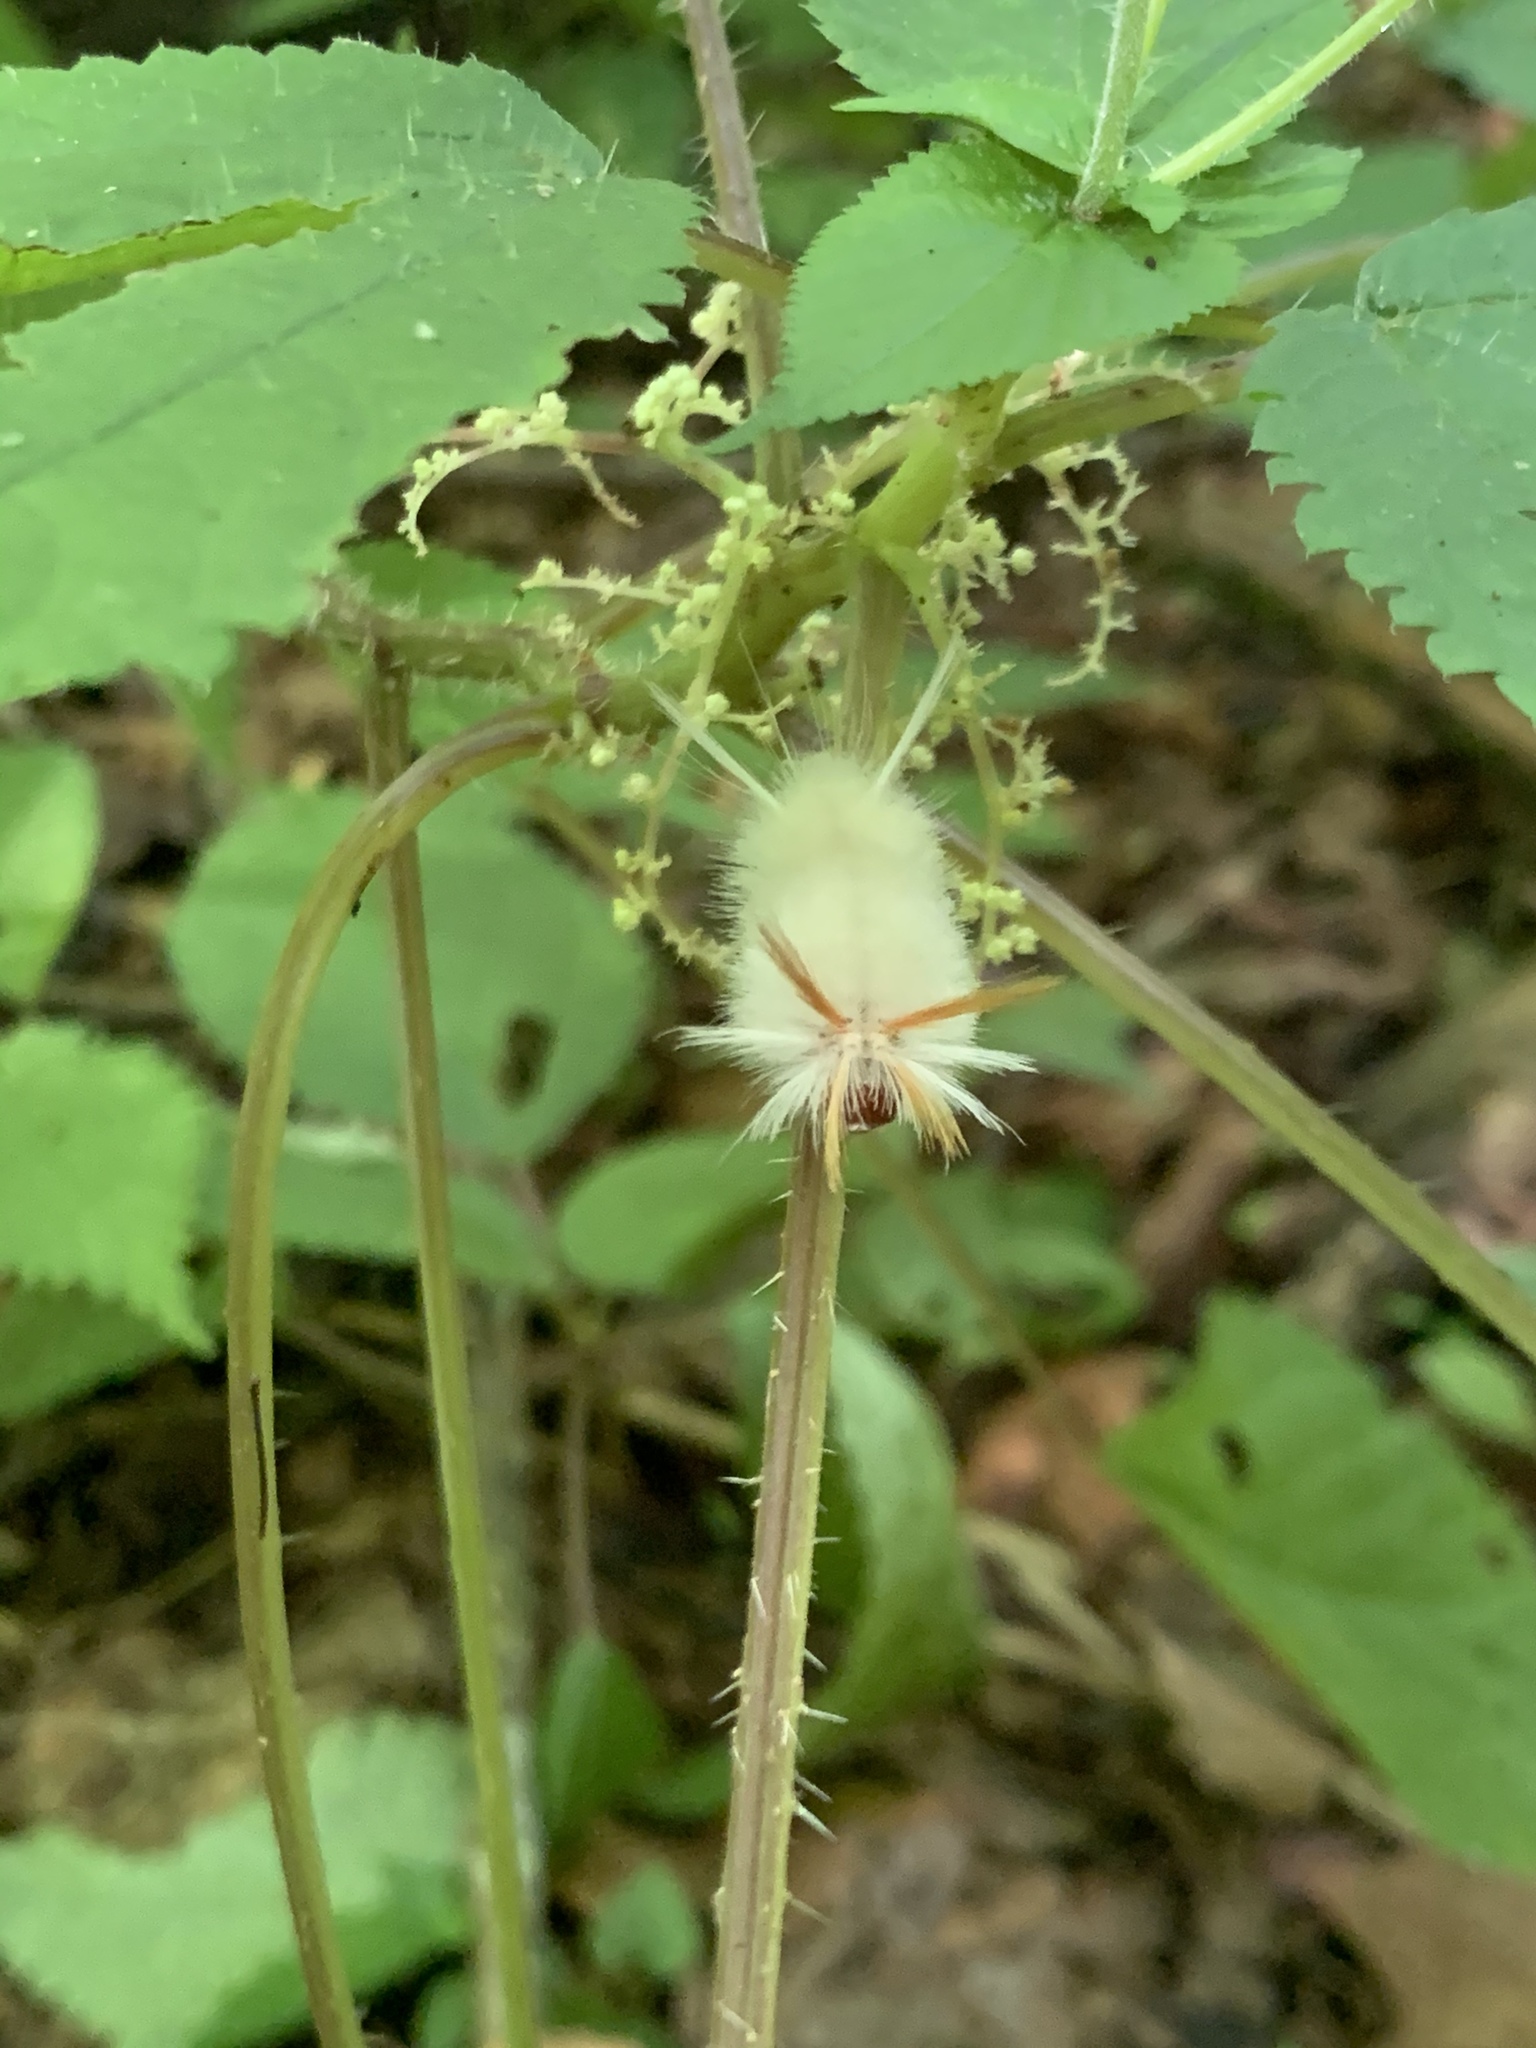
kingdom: Animalia
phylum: Arthropoda
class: Insecta
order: Lepidoptera
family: Erebidae
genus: Halysidota
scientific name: Halysidota harrisii
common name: Sycamore tussock moth
